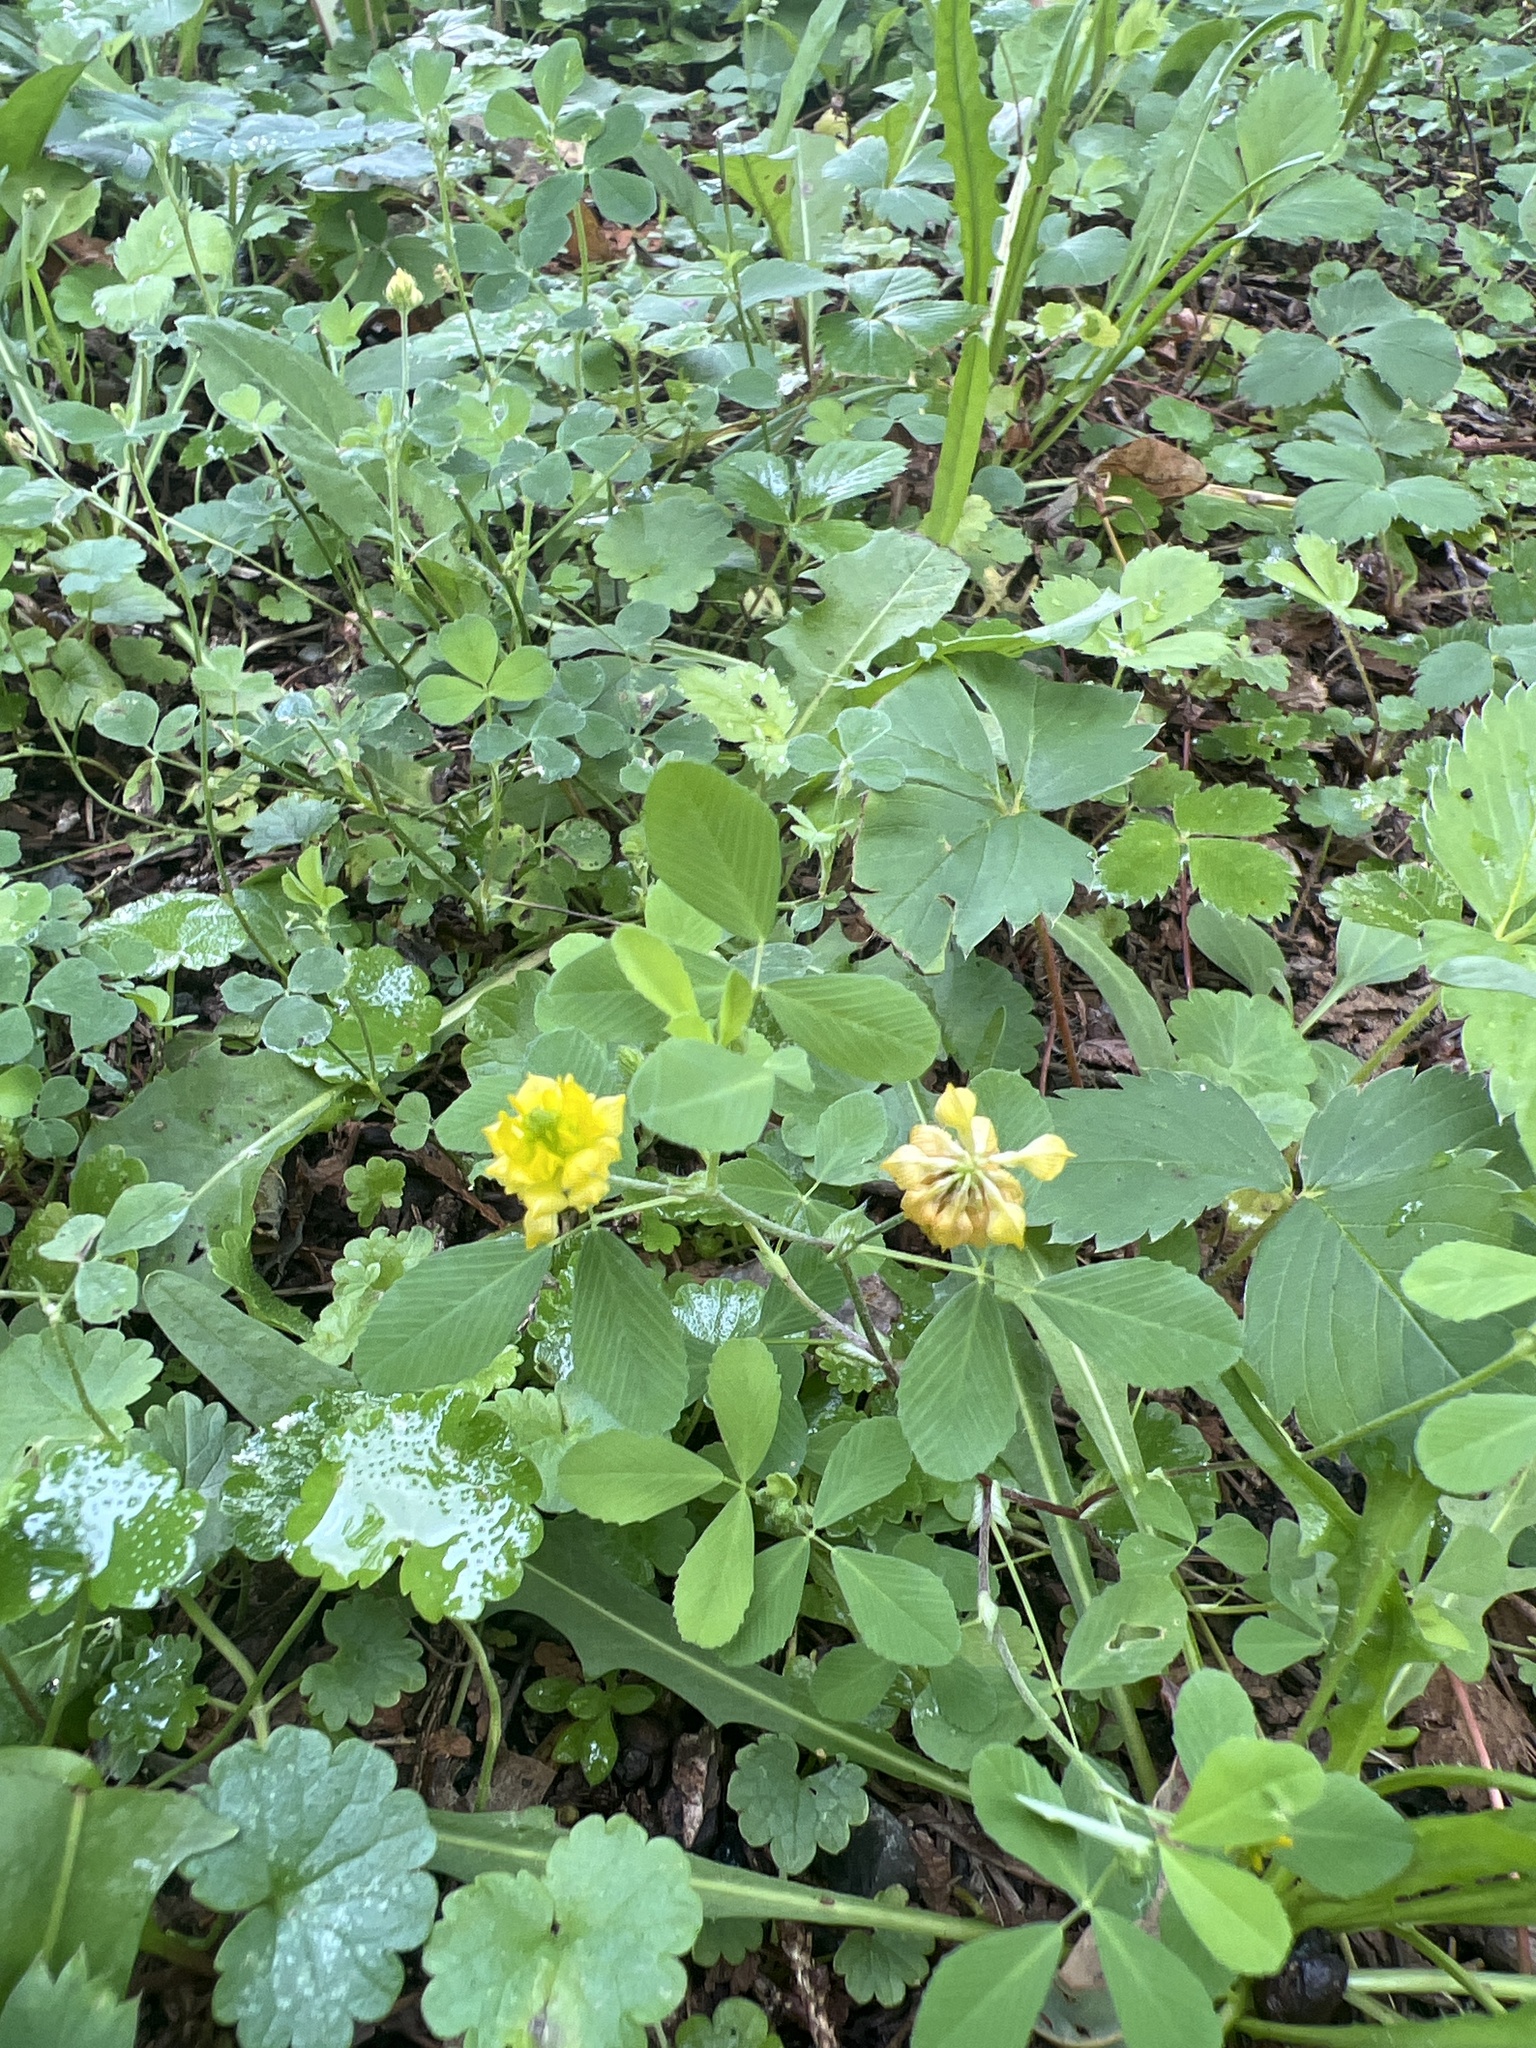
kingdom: Plantae
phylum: Tracheophyta
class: Magnoliopsida
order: Fabales
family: Fabaceae
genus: Trifolium
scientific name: Trifolium campestre
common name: Field clover
